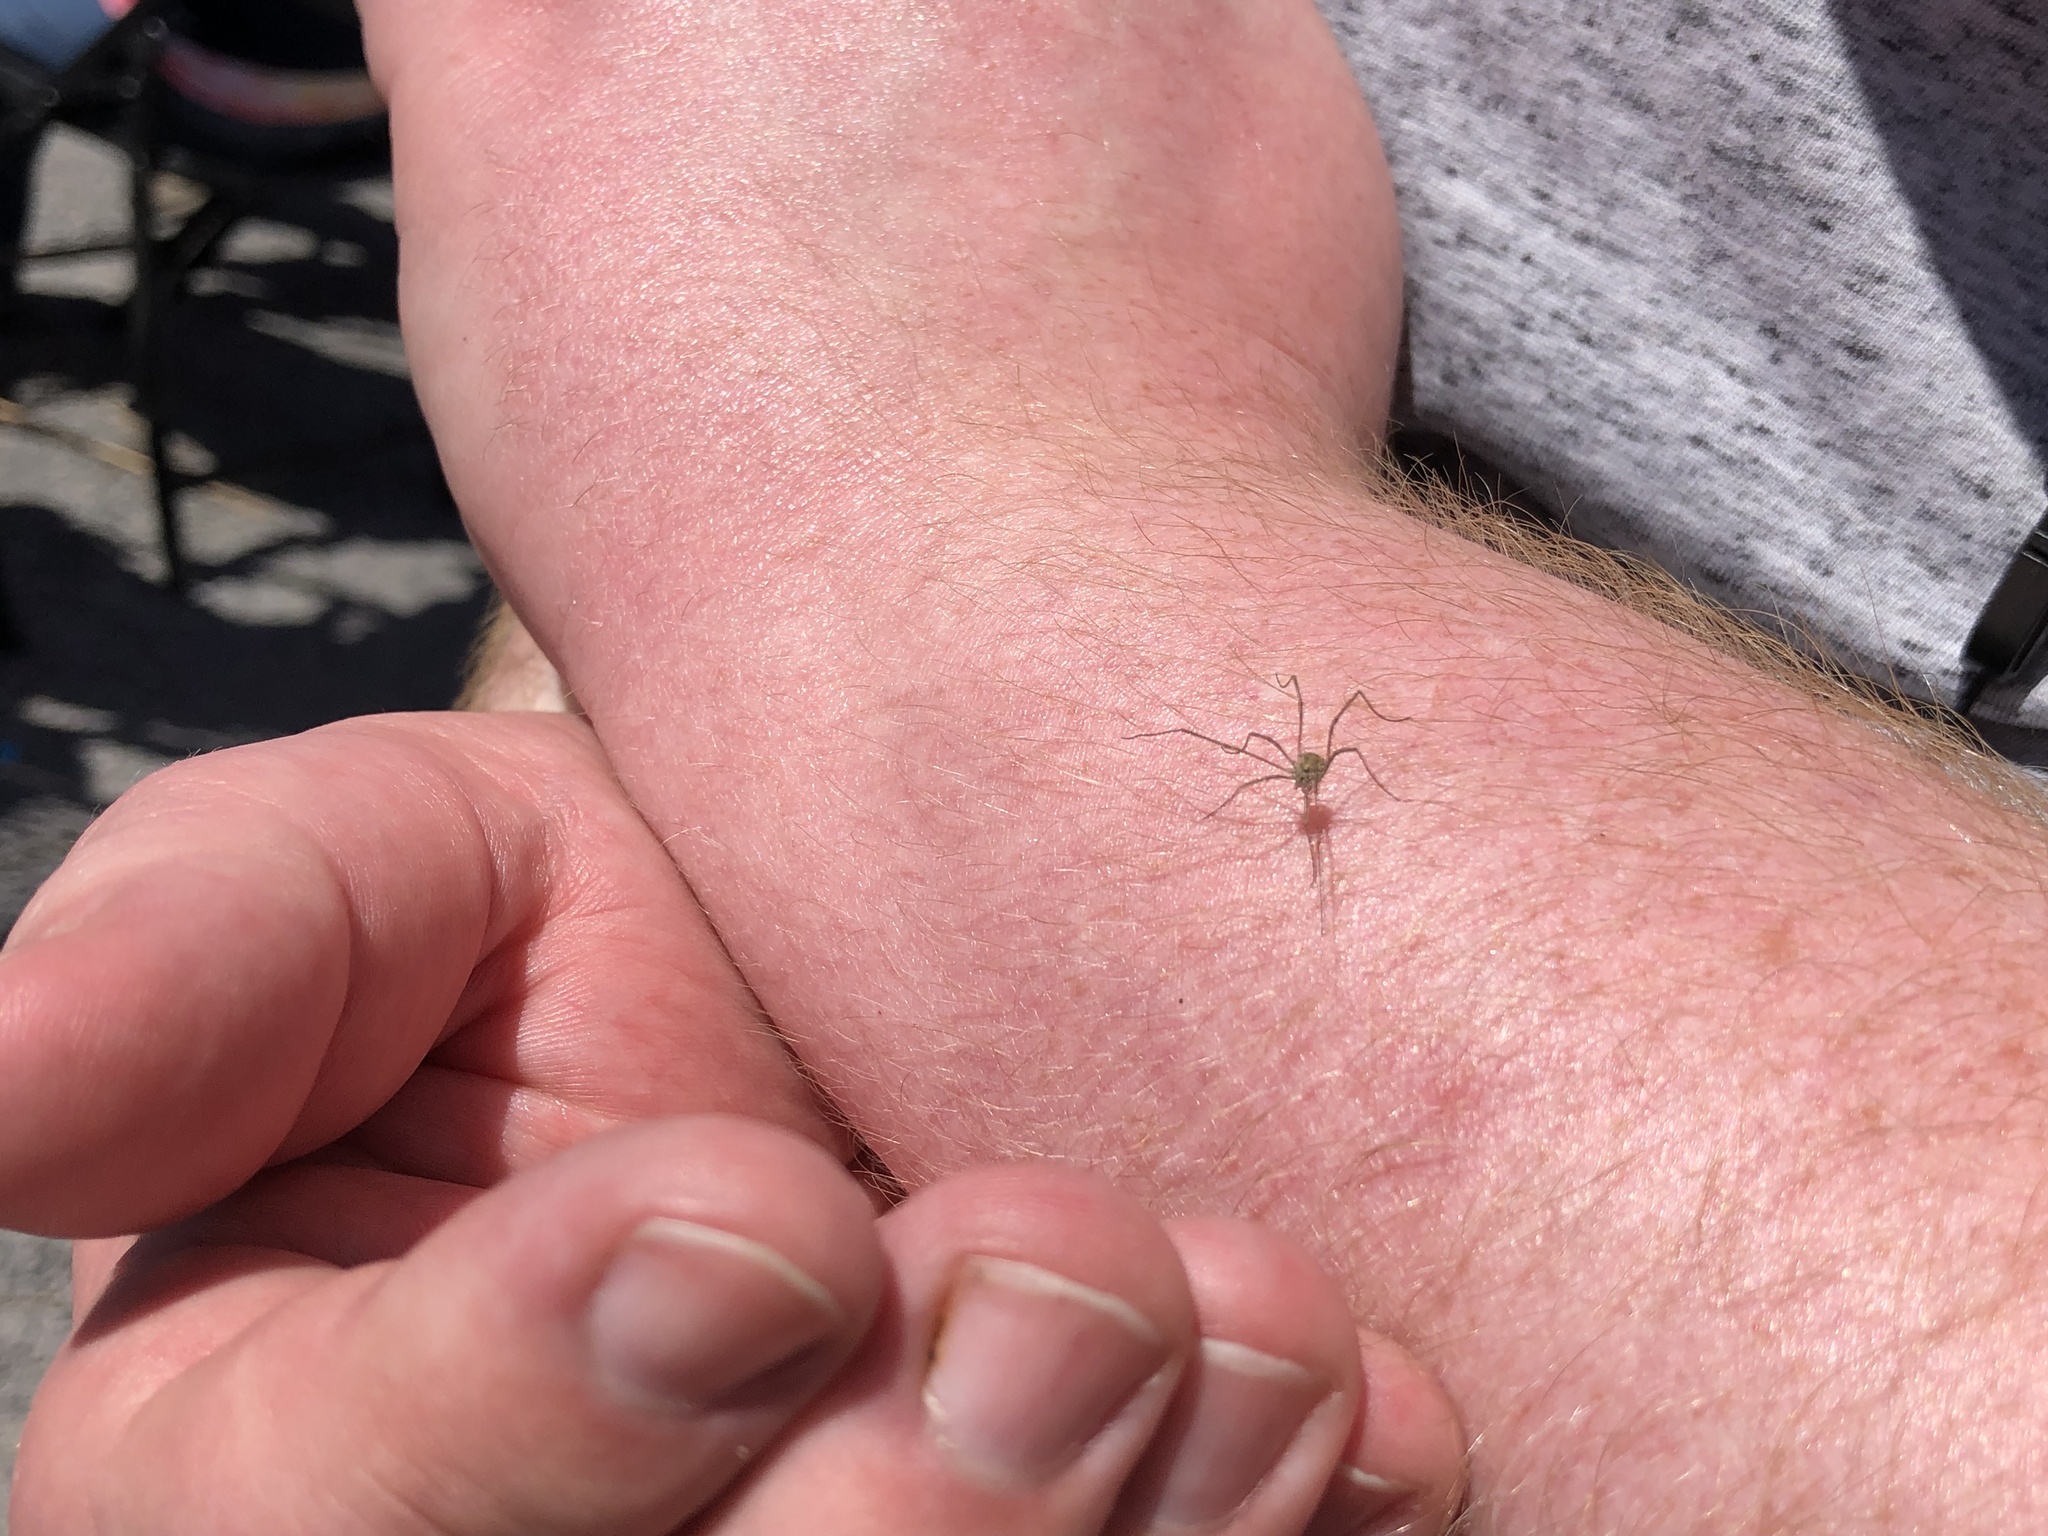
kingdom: Animalia
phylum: Arthropoda
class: Arachnida
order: Opiliones
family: Phalangiidae
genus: Phalangium
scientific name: Phalangium opilio
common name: Daddy longleg
